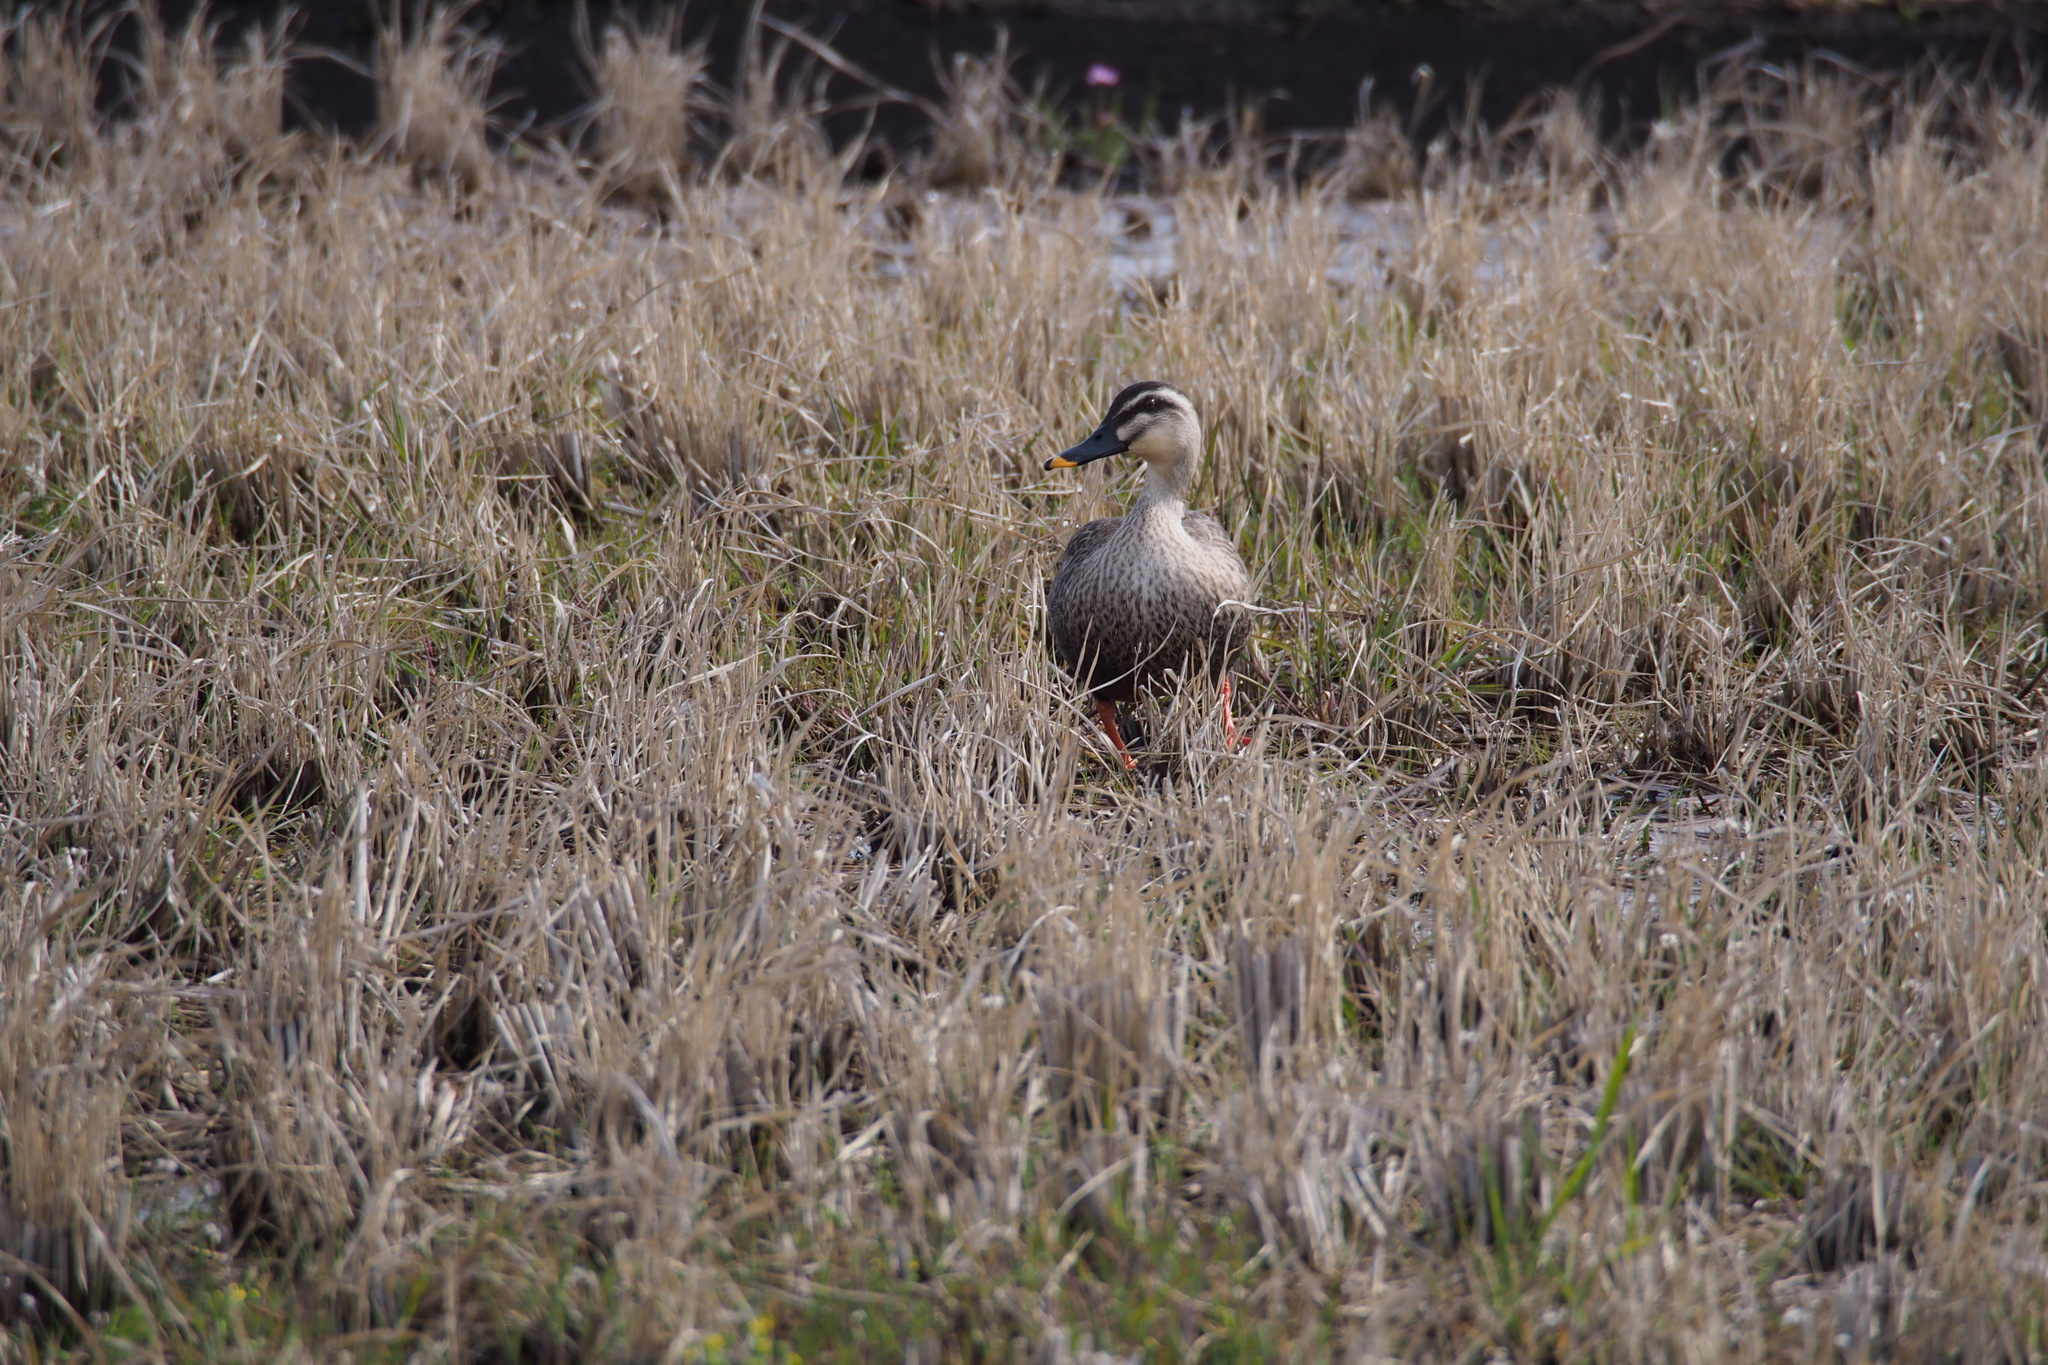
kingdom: Animalia
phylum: Chordata
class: Aves
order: Anseriformes
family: Anatidae
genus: Anas
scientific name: Anas zonorhyncha
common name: Eastern spot-billed duck
